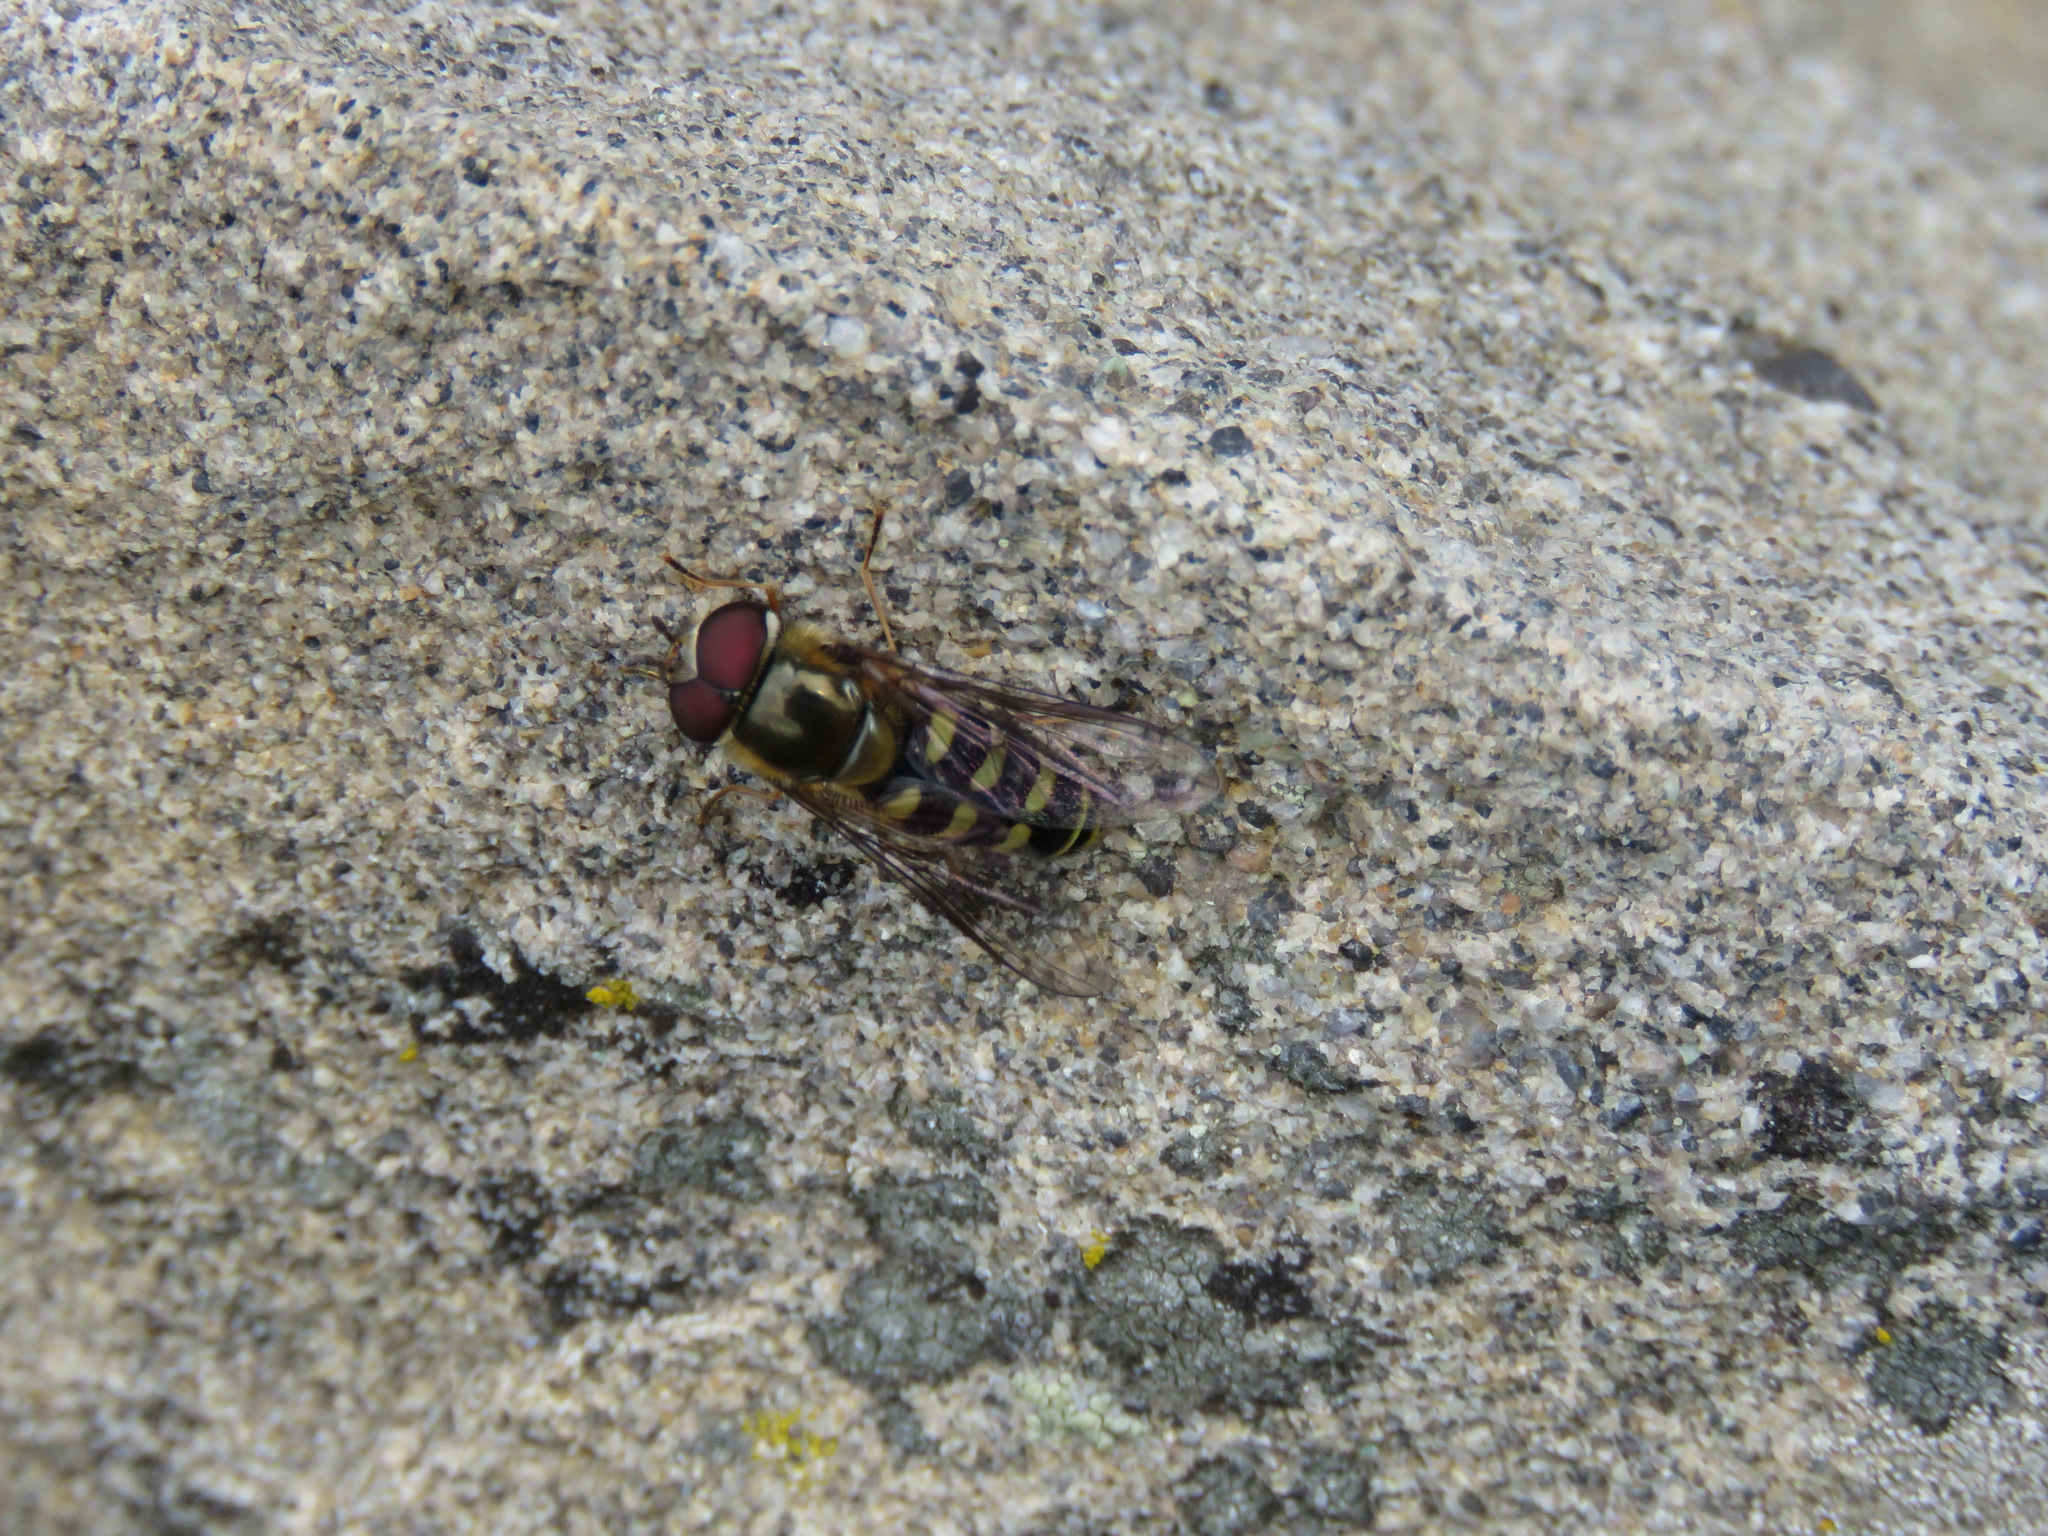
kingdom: Animalia
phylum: Arthropoda
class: Insecta
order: Diptera
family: Syrphidae
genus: Lapposyrphus
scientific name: Lapposyrphus lapponicus
